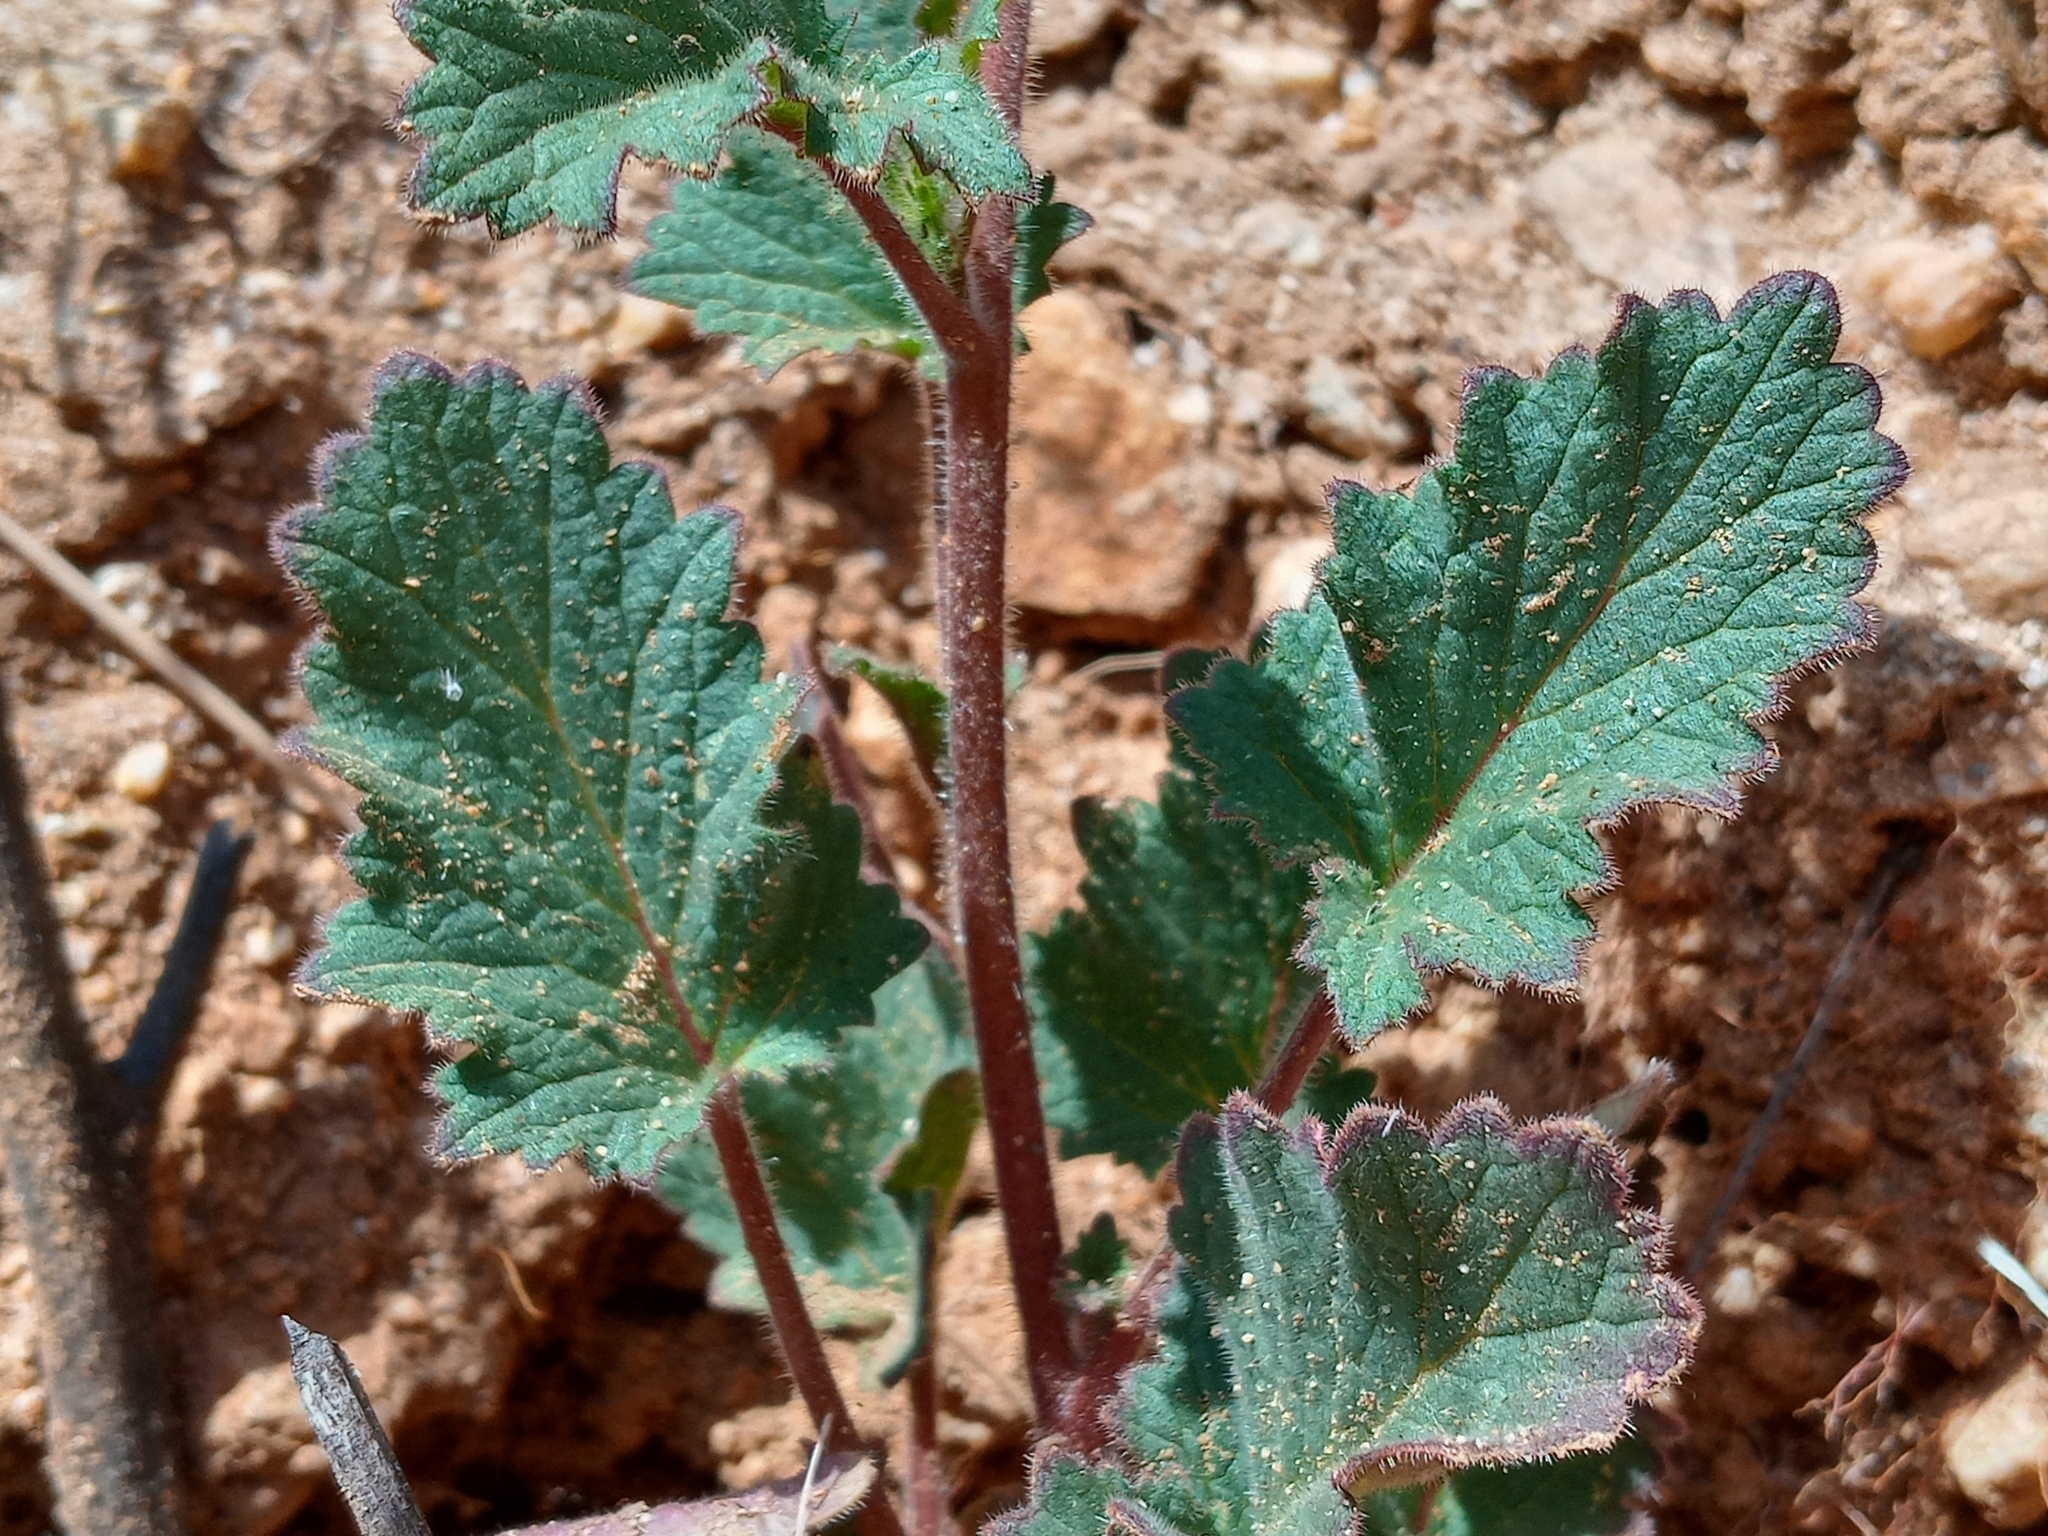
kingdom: Plantae
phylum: Tracheophyta
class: Magnoliopsida
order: Boraginales
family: Hydrophyllaceae
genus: Phacelia
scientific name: Phacelia minor
